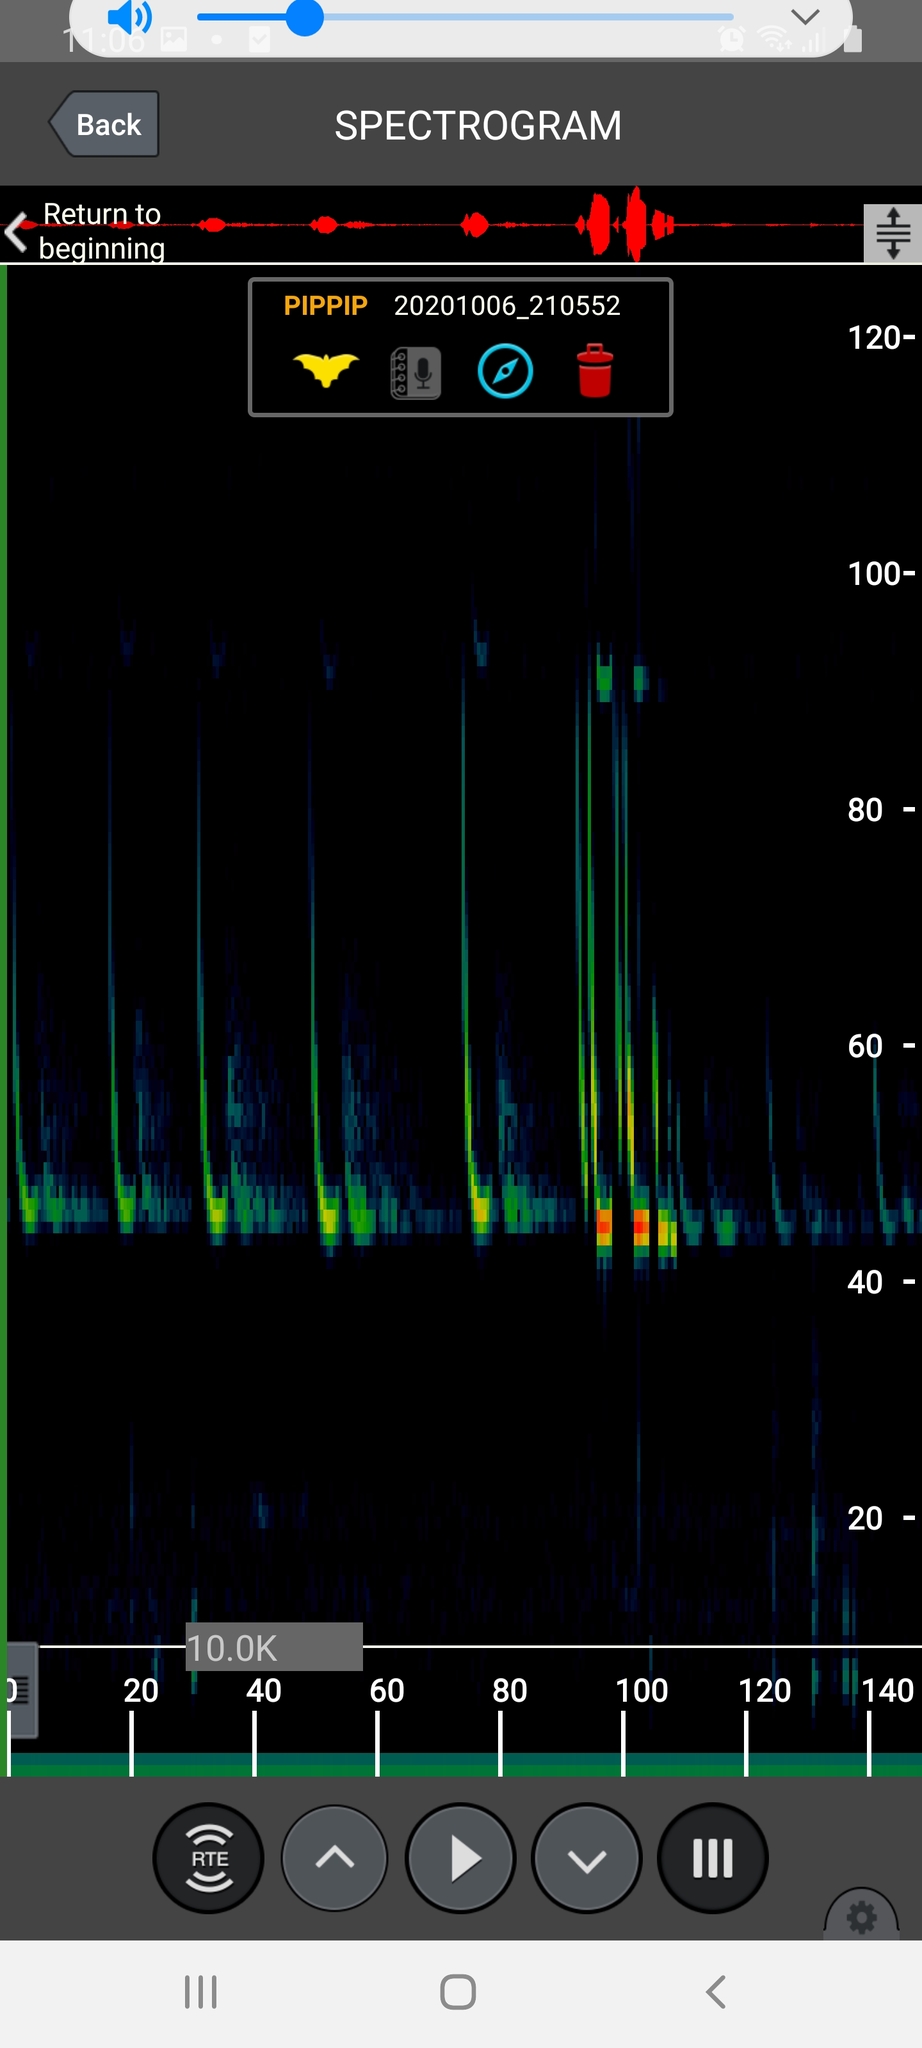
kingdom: Animalia
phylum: Chordata
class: Mammalia
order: Chiroptera
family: Vespertilionidae
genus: Pipistrellus
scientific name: Pipistrellus pipistrellus
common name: Common pipistrelle
